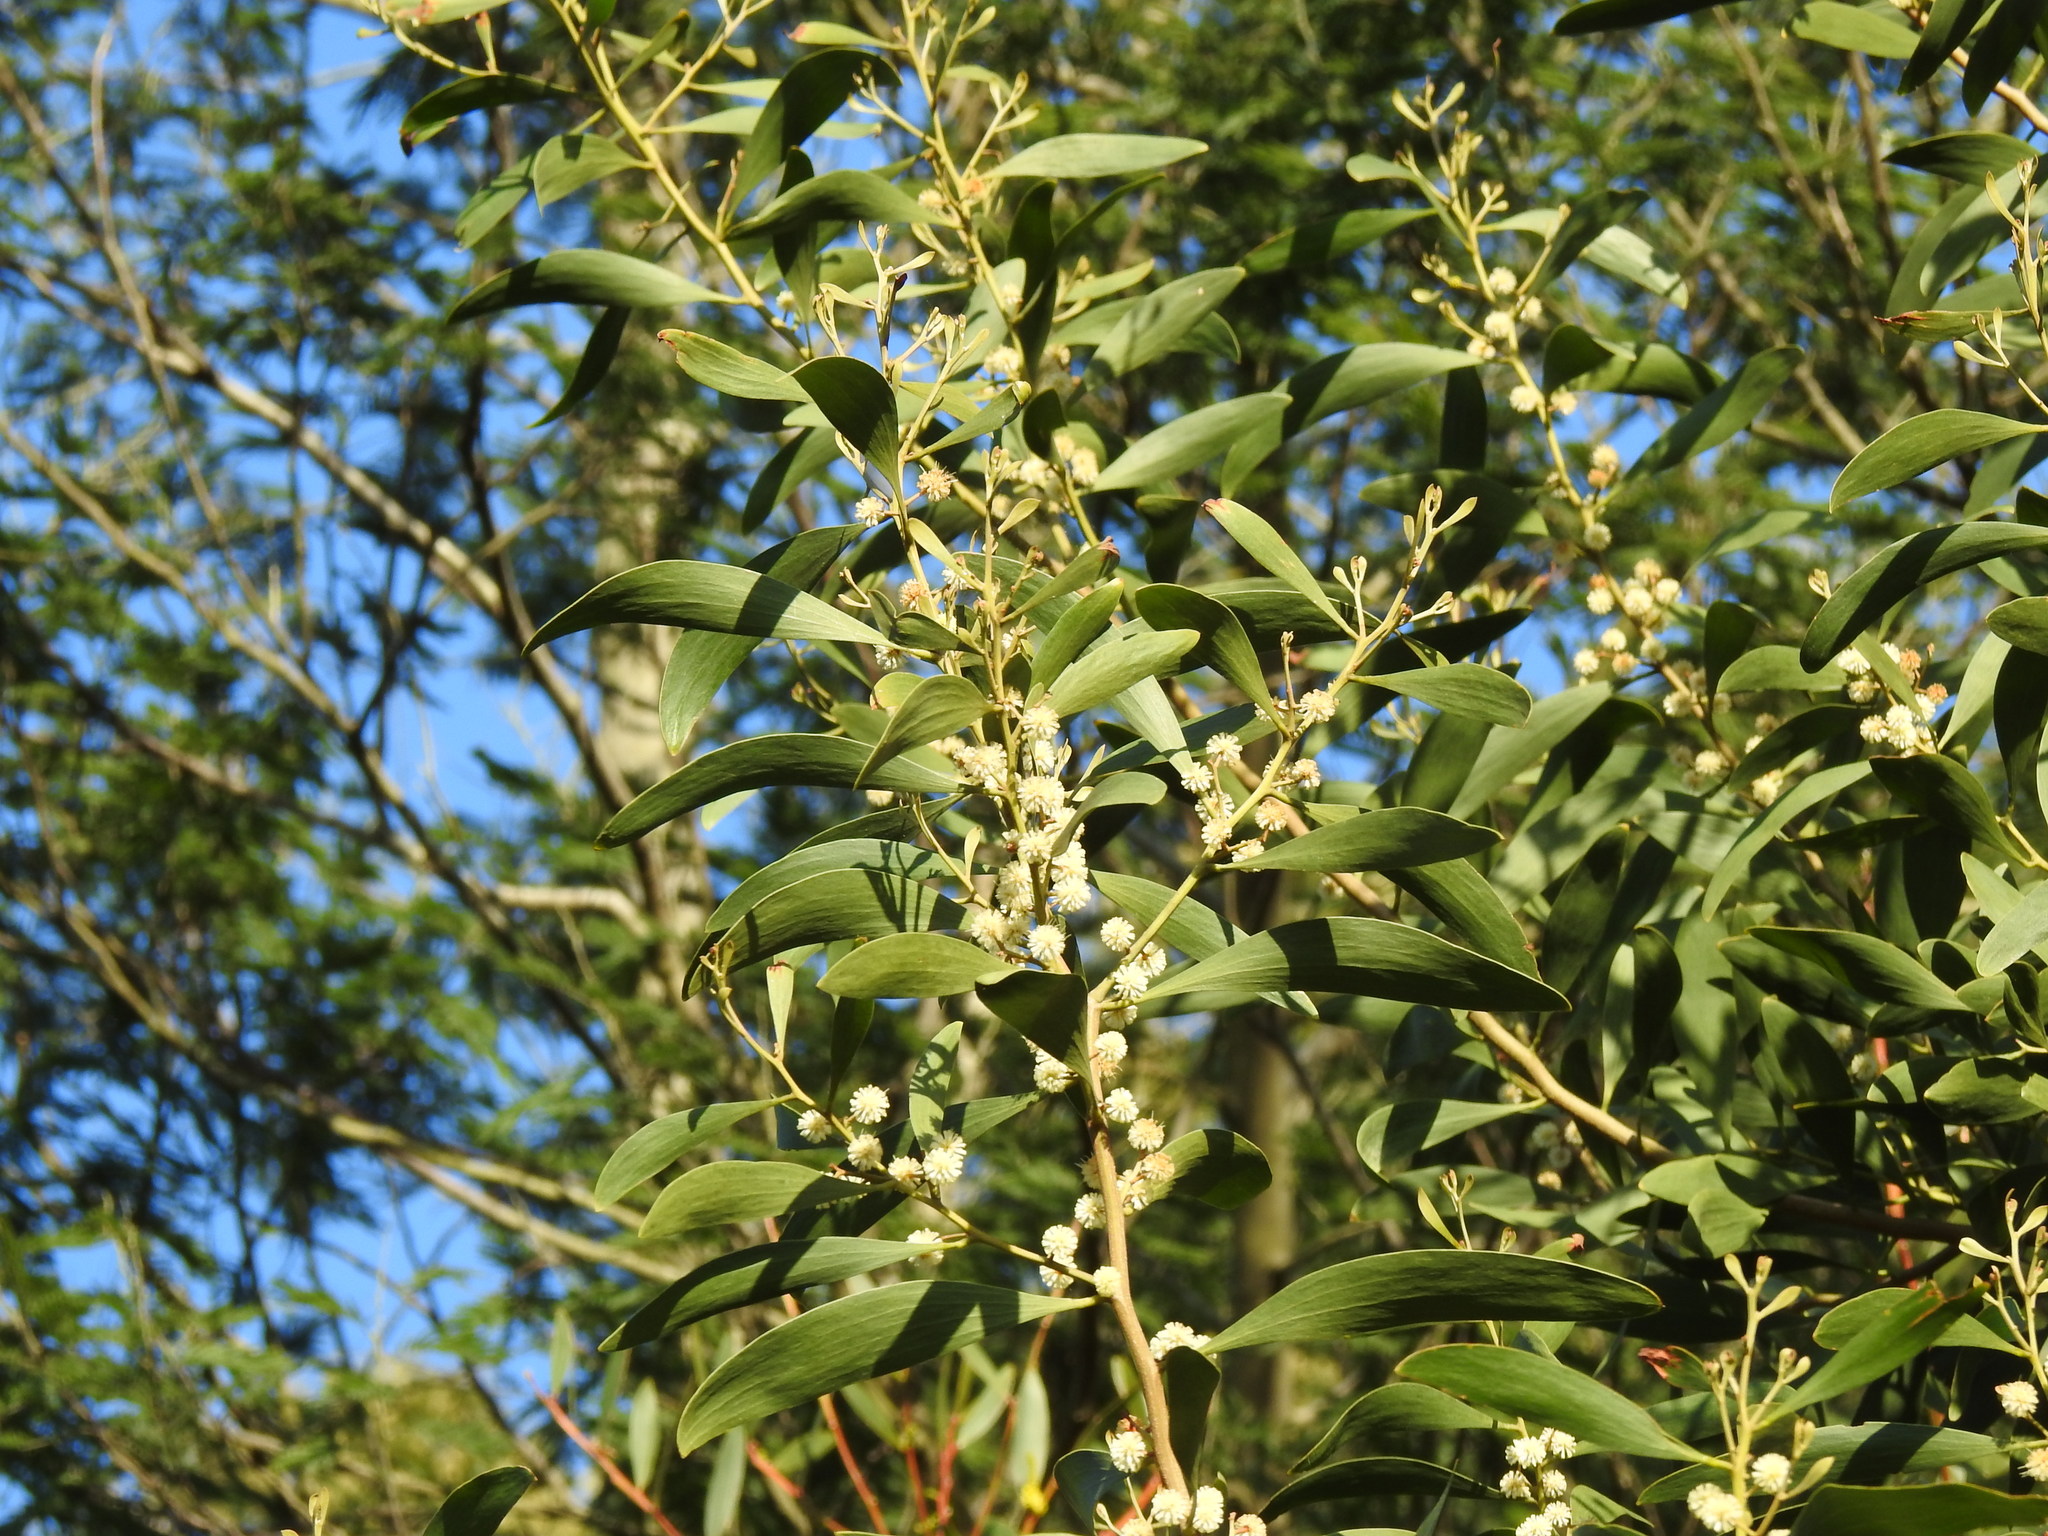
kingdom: Plantae
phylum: Tracheophyta
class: Magnoliopsida
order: Fabales
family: Fabaceae
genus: Acacia
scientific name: Acacia melanoxylon
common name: Blackwood
